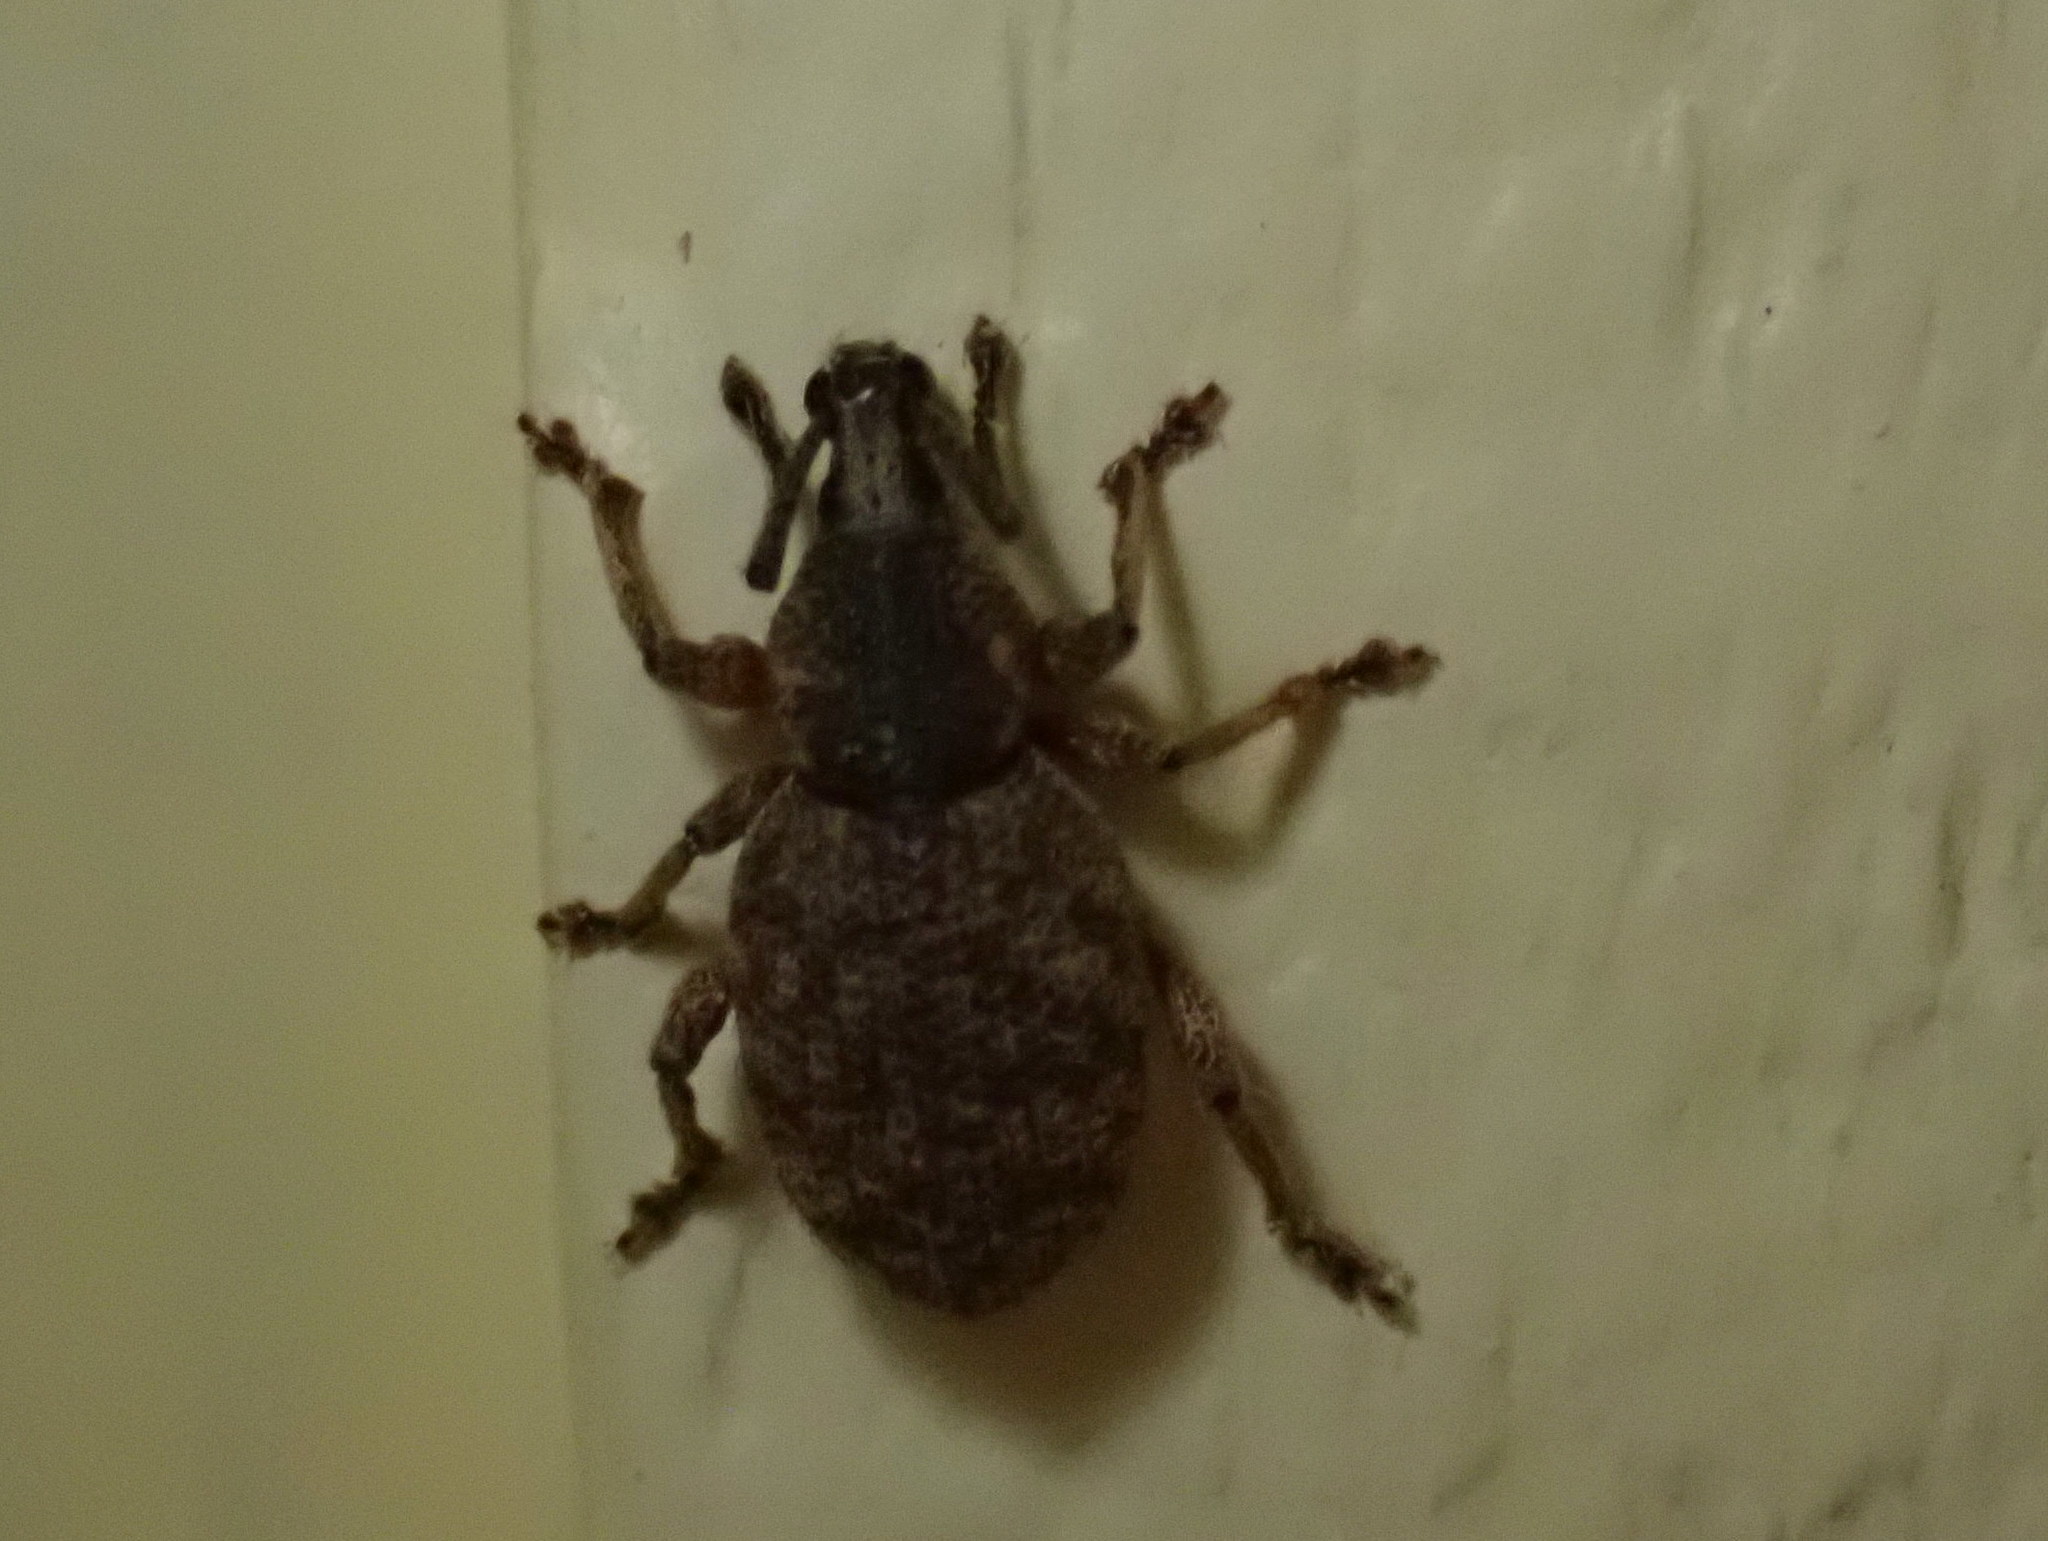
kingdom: Animalia
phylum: Arthropoda
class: Insecta
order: Coleoptera
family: Curculionidae
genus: Otiorhynchus
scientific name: Otiorhynchus singularis
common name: Clay-coloured weevil
